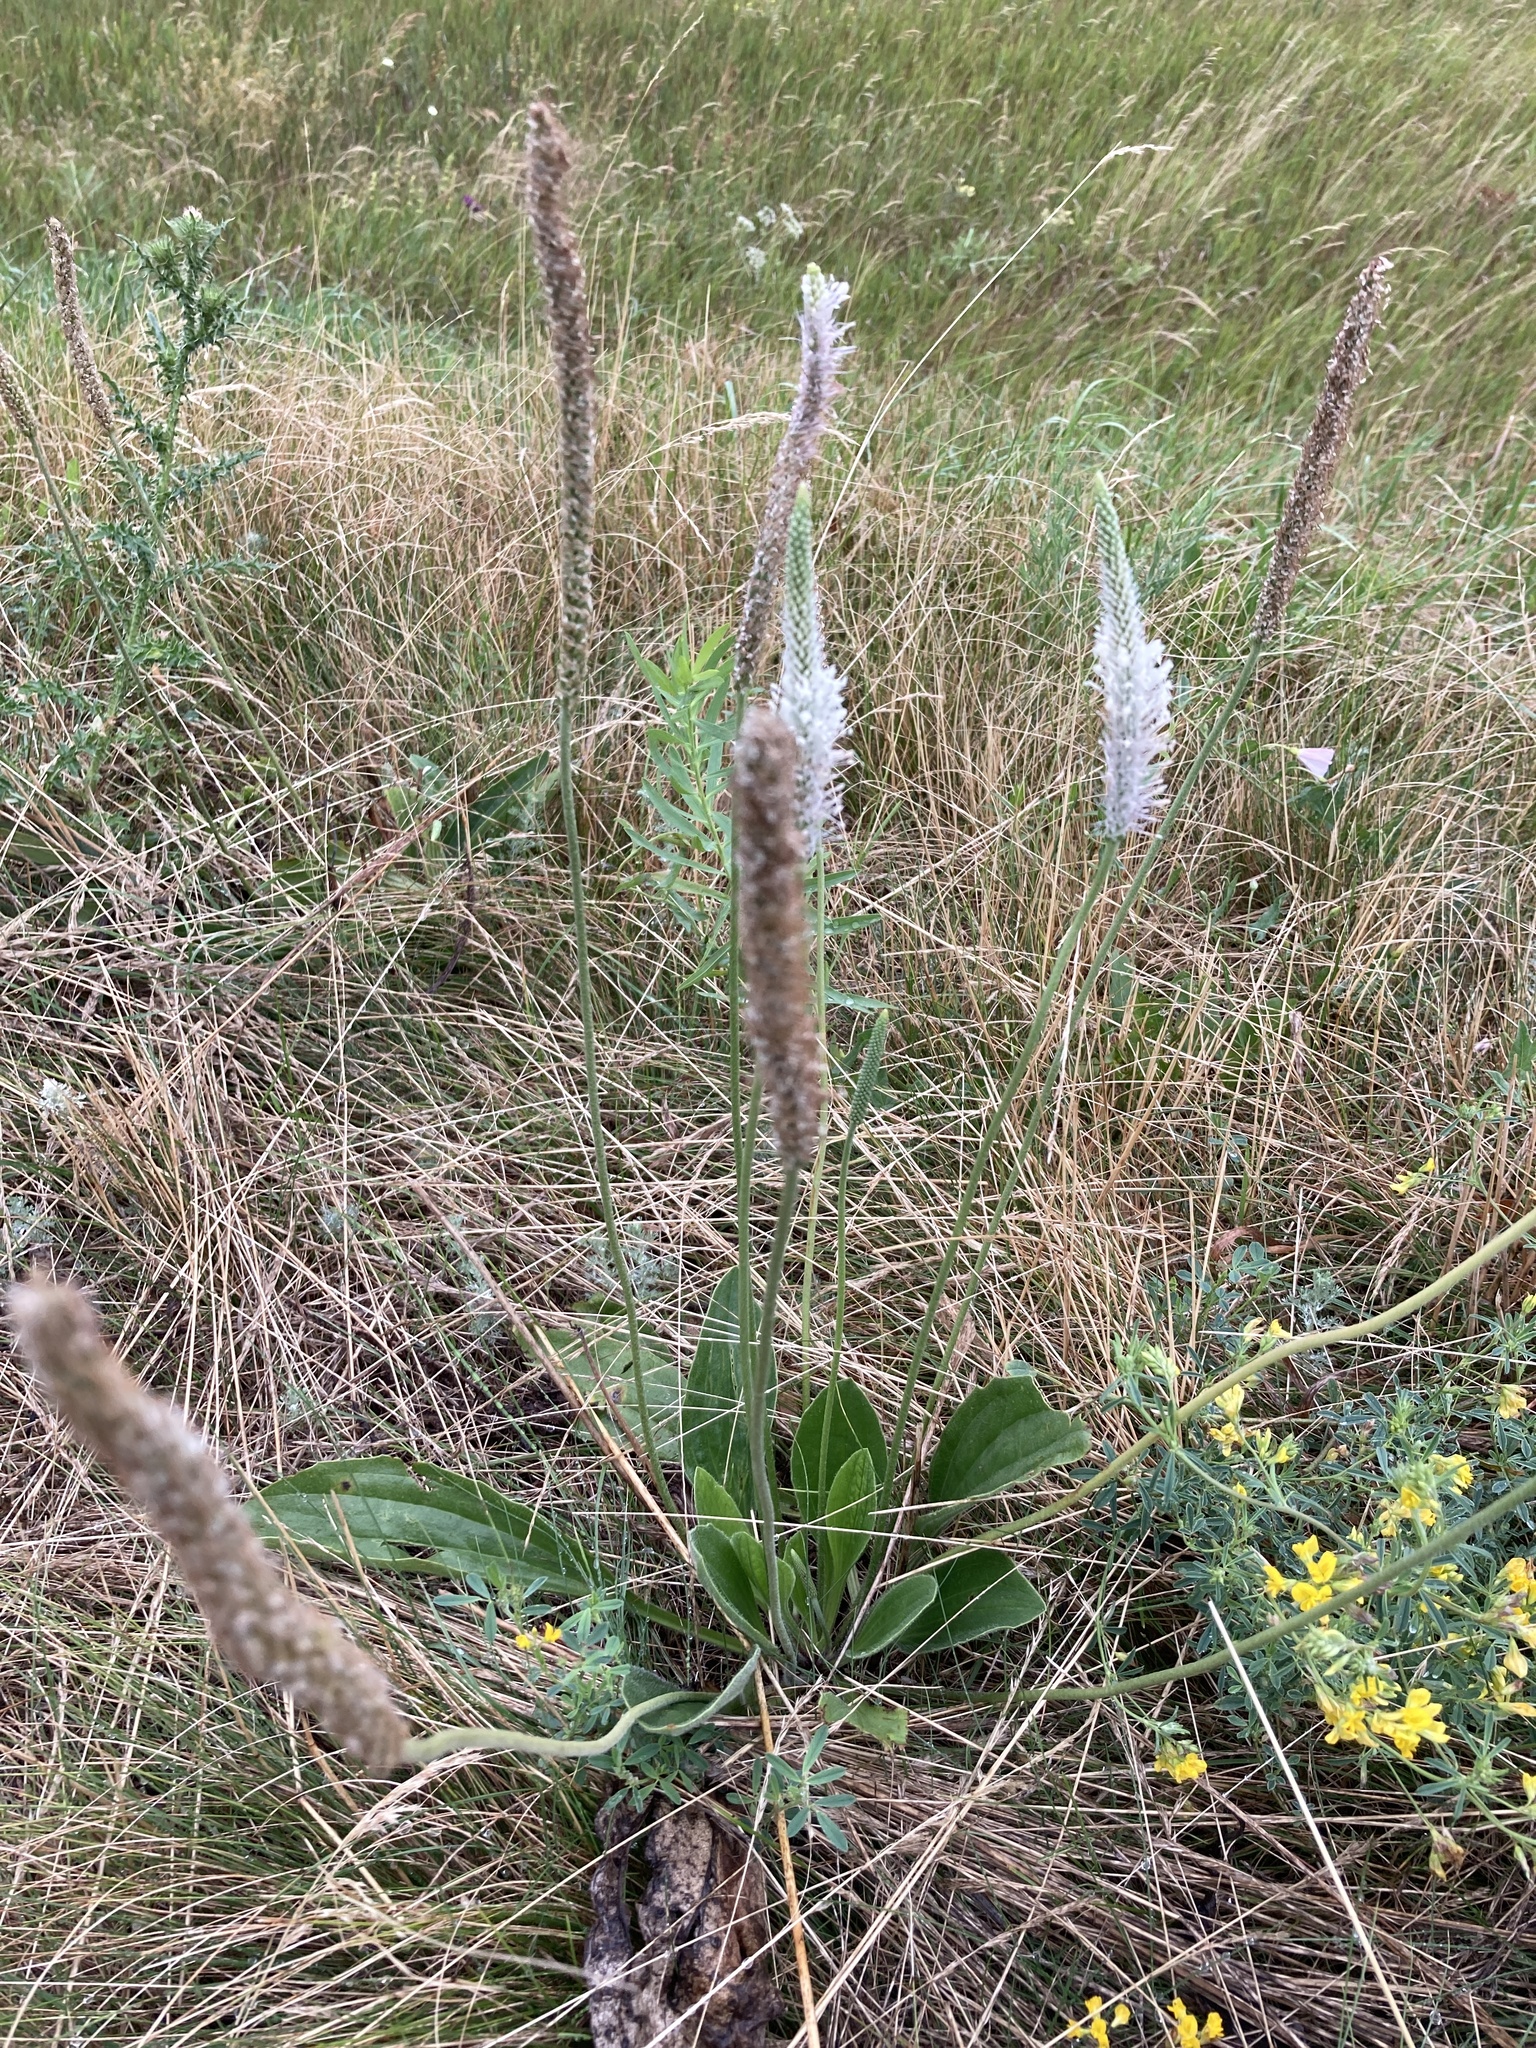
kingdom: Plantae
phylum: Tracheophyta
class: Magnoliopsida
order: Lamiales
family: Plantaginaceae
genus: Plantago
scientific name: Plantago urvillei
